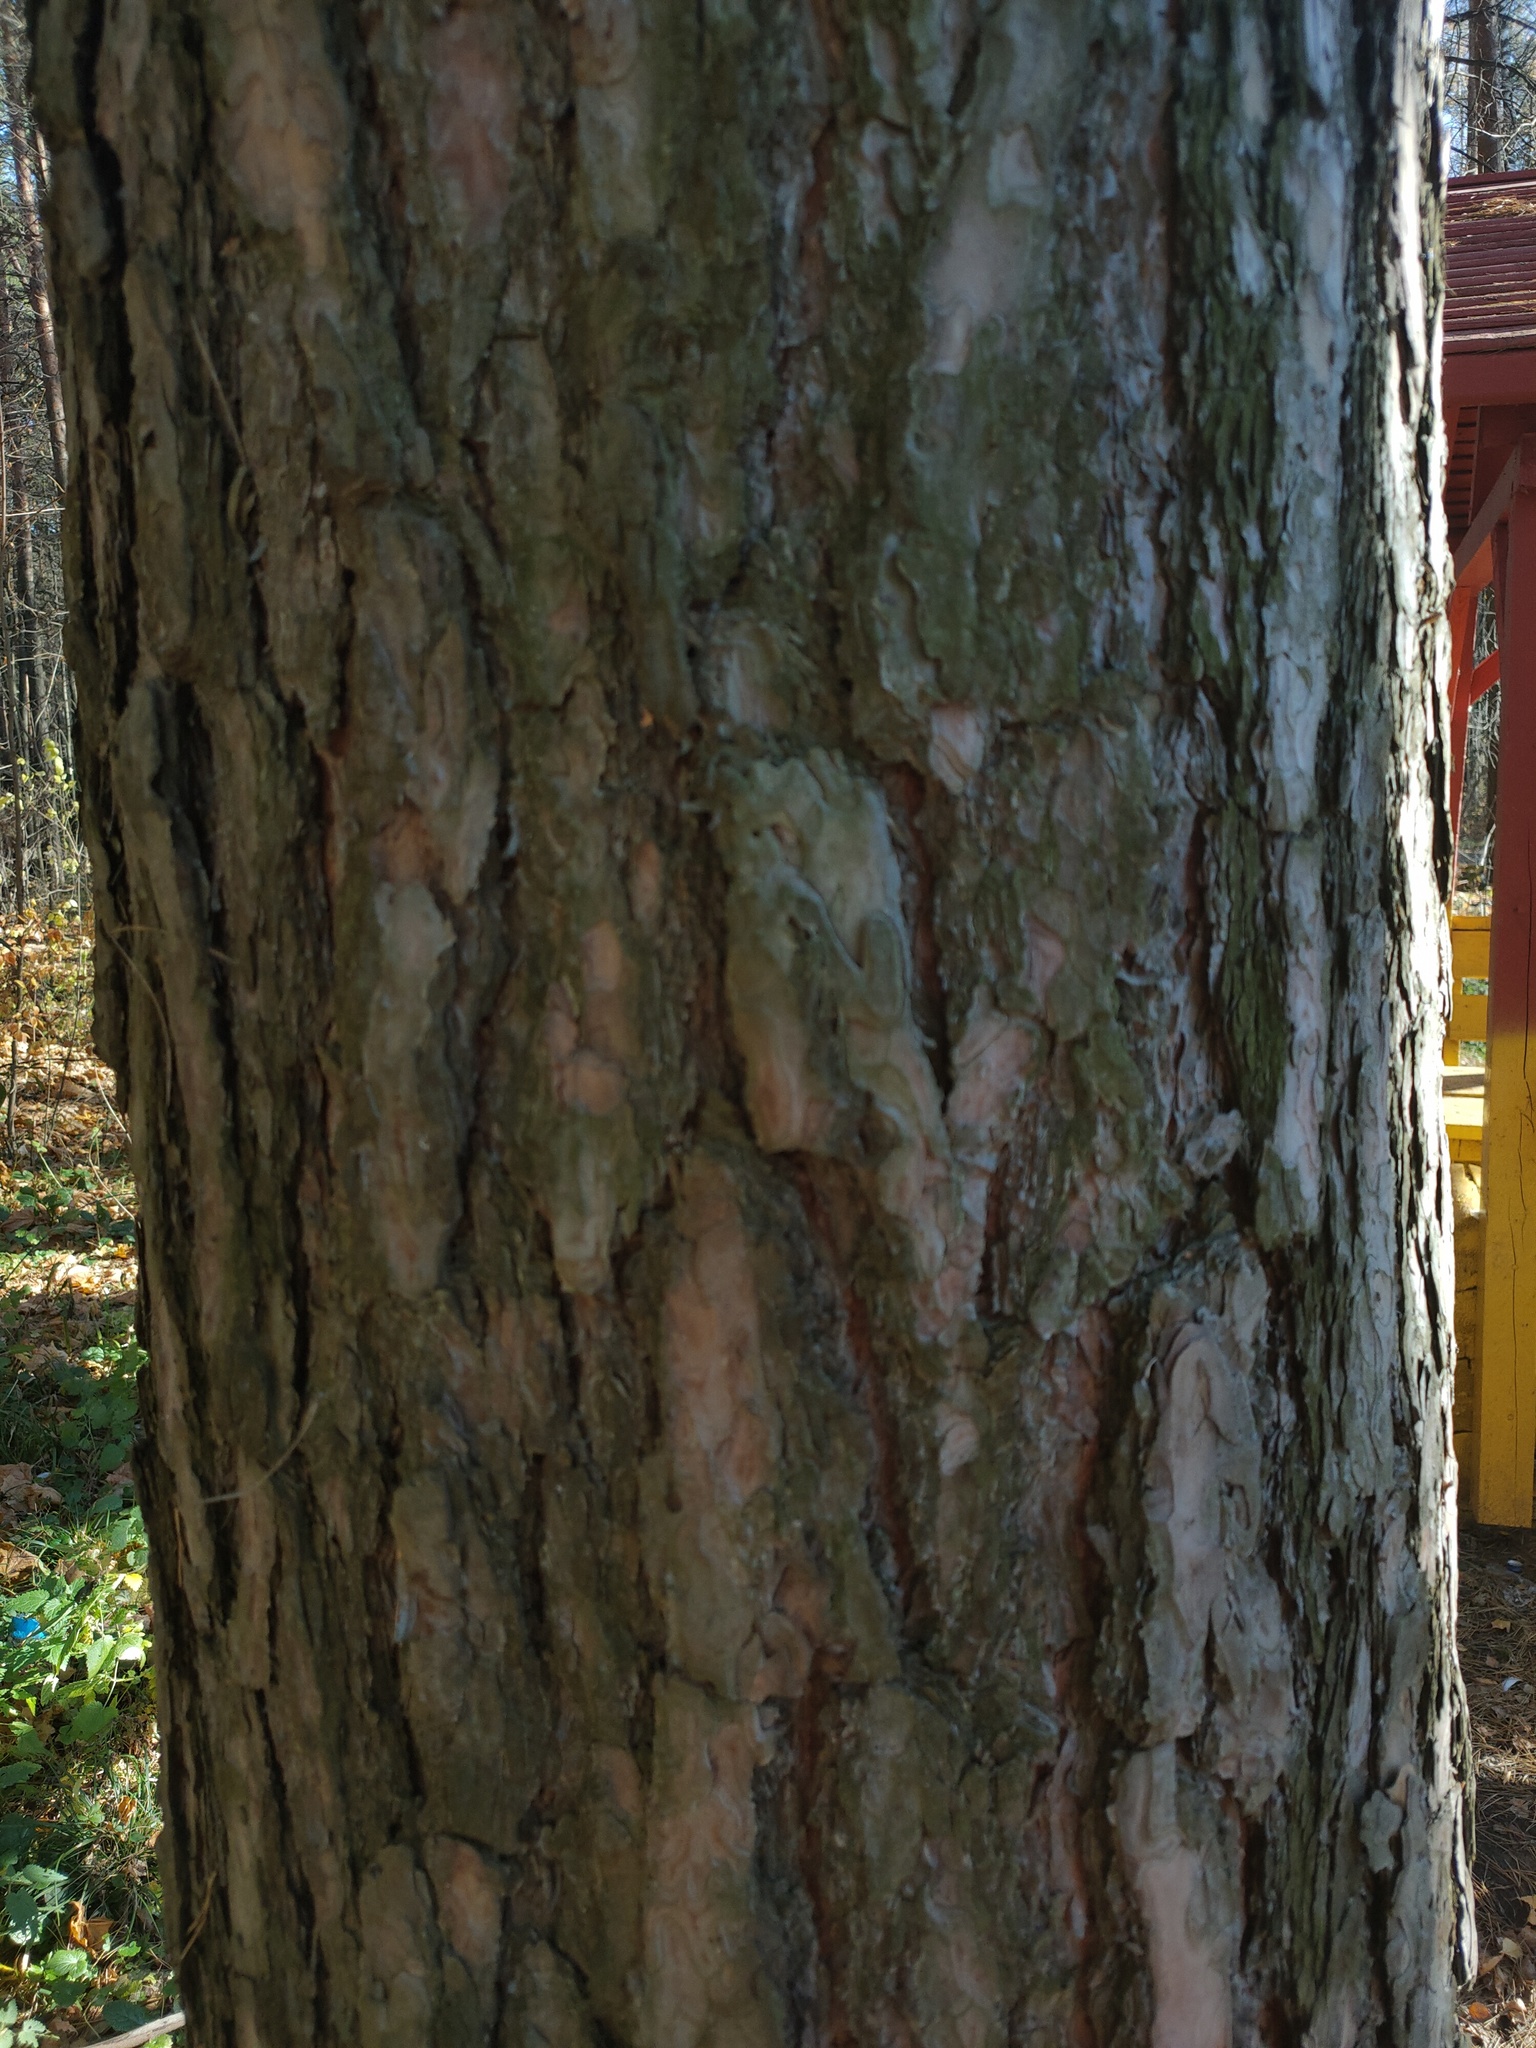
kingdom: Plantae
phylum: Tracheophyta
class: Pinopsida
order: Pinales
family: Pinaceae
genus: Pinus
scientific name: Pinus sylvestris
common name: Scots pine
